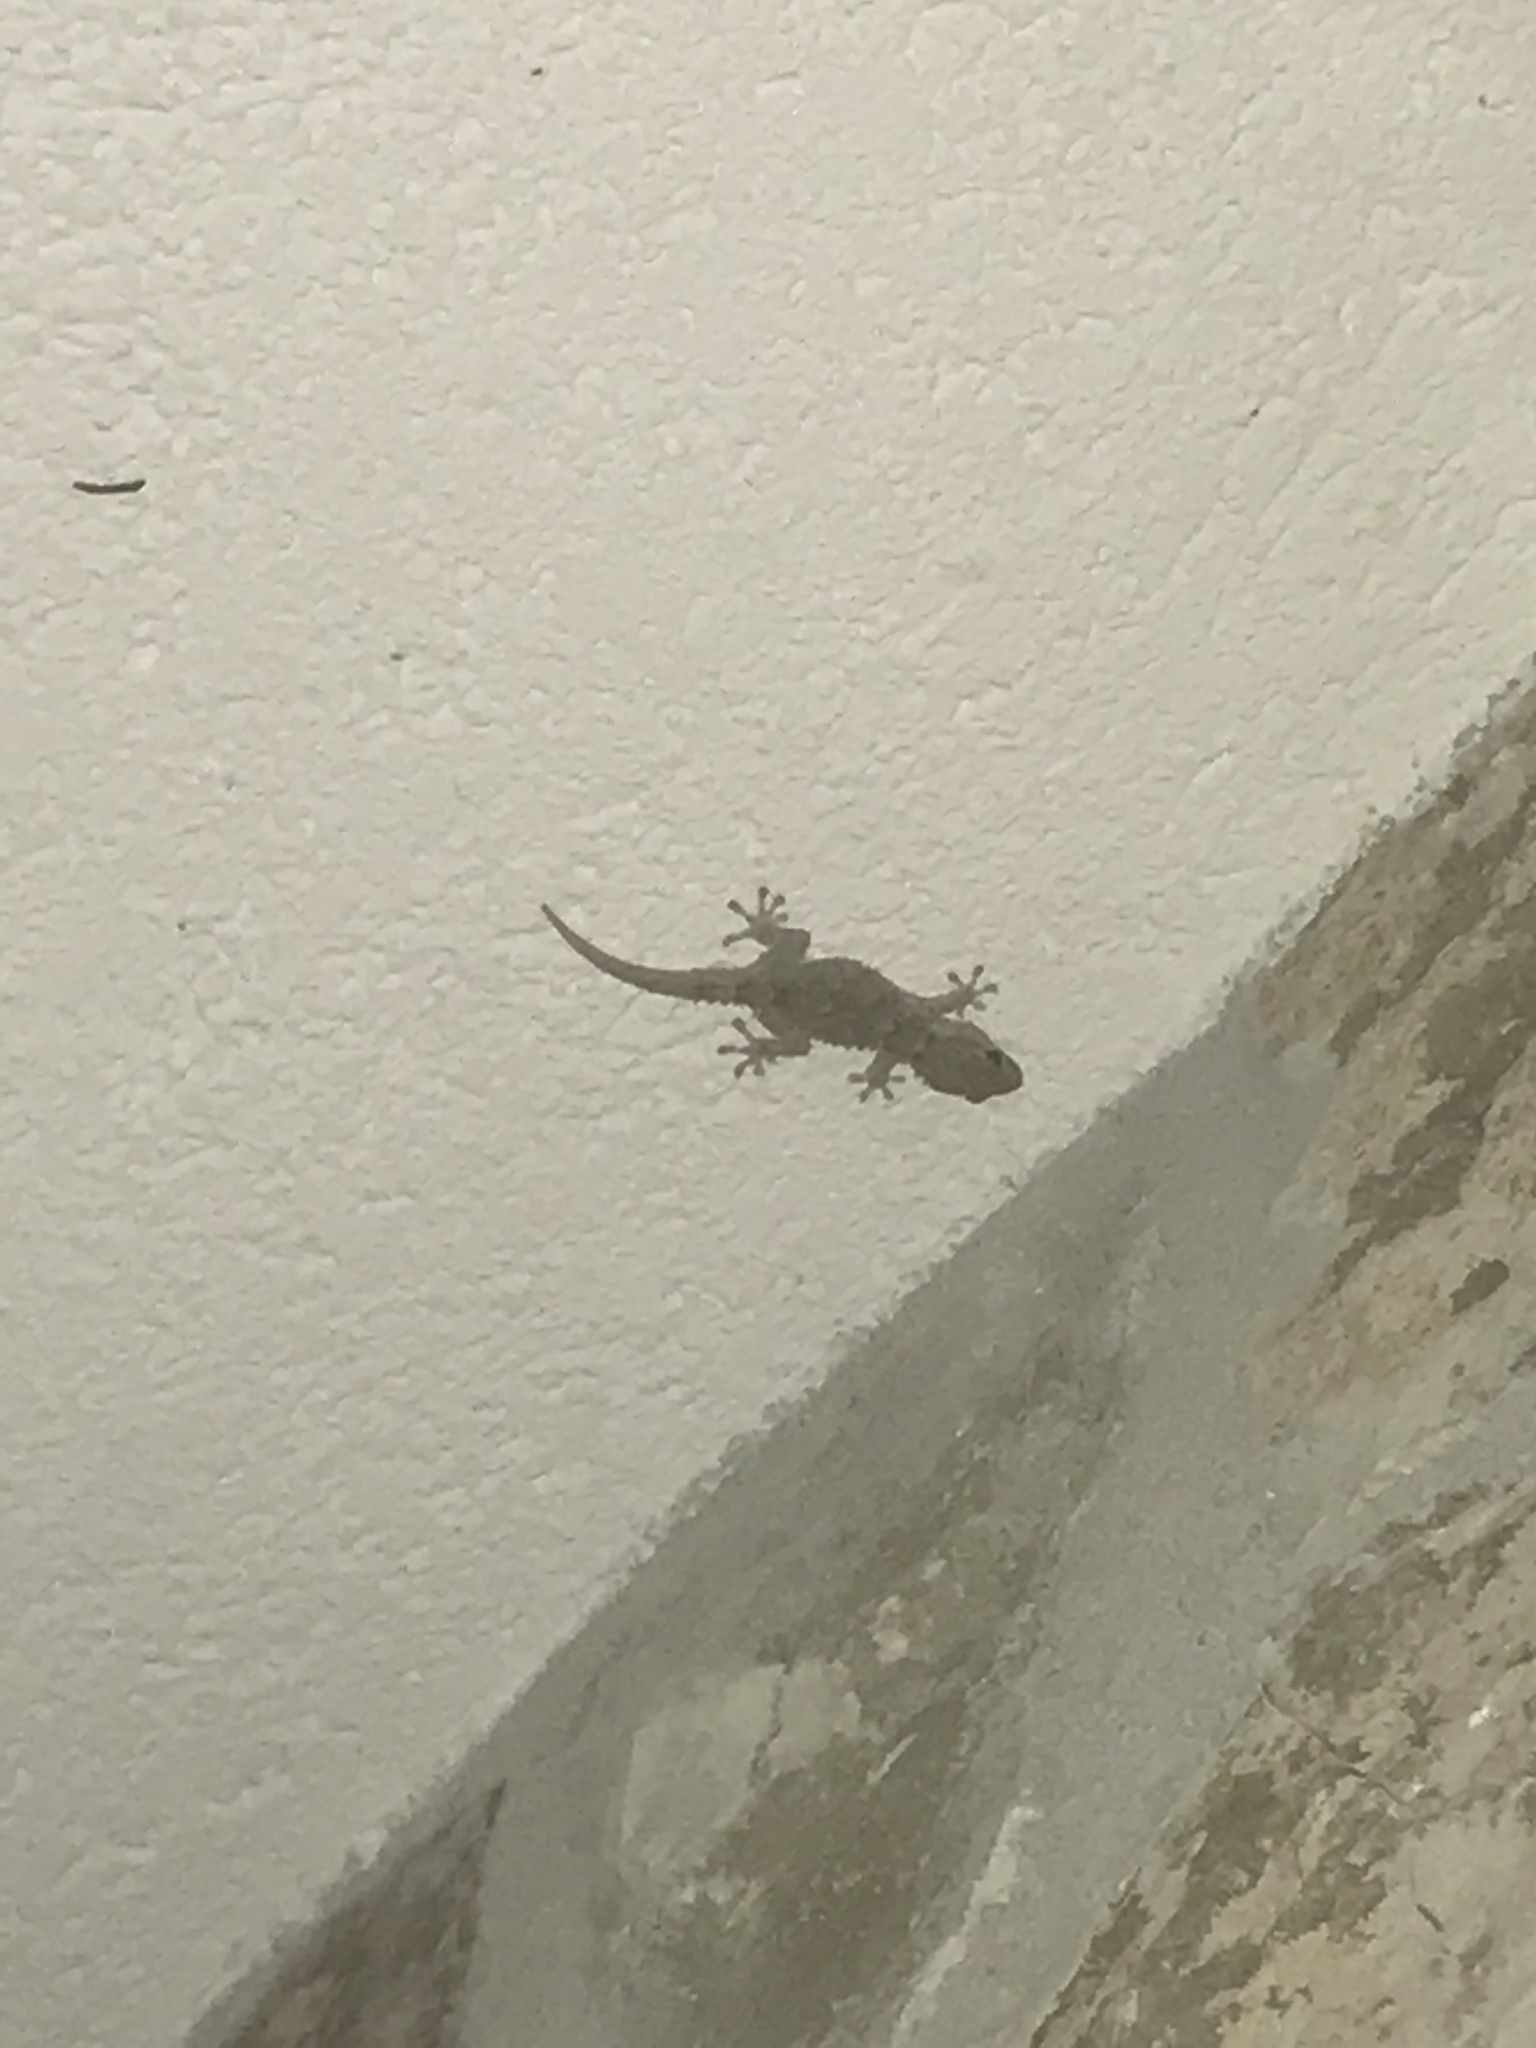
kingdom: Animalia
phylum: Chordata
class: Squamata
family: Phyllodactylidae
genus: Tarentola
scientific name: Tarentola mauritanica
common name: Moorish gecko
